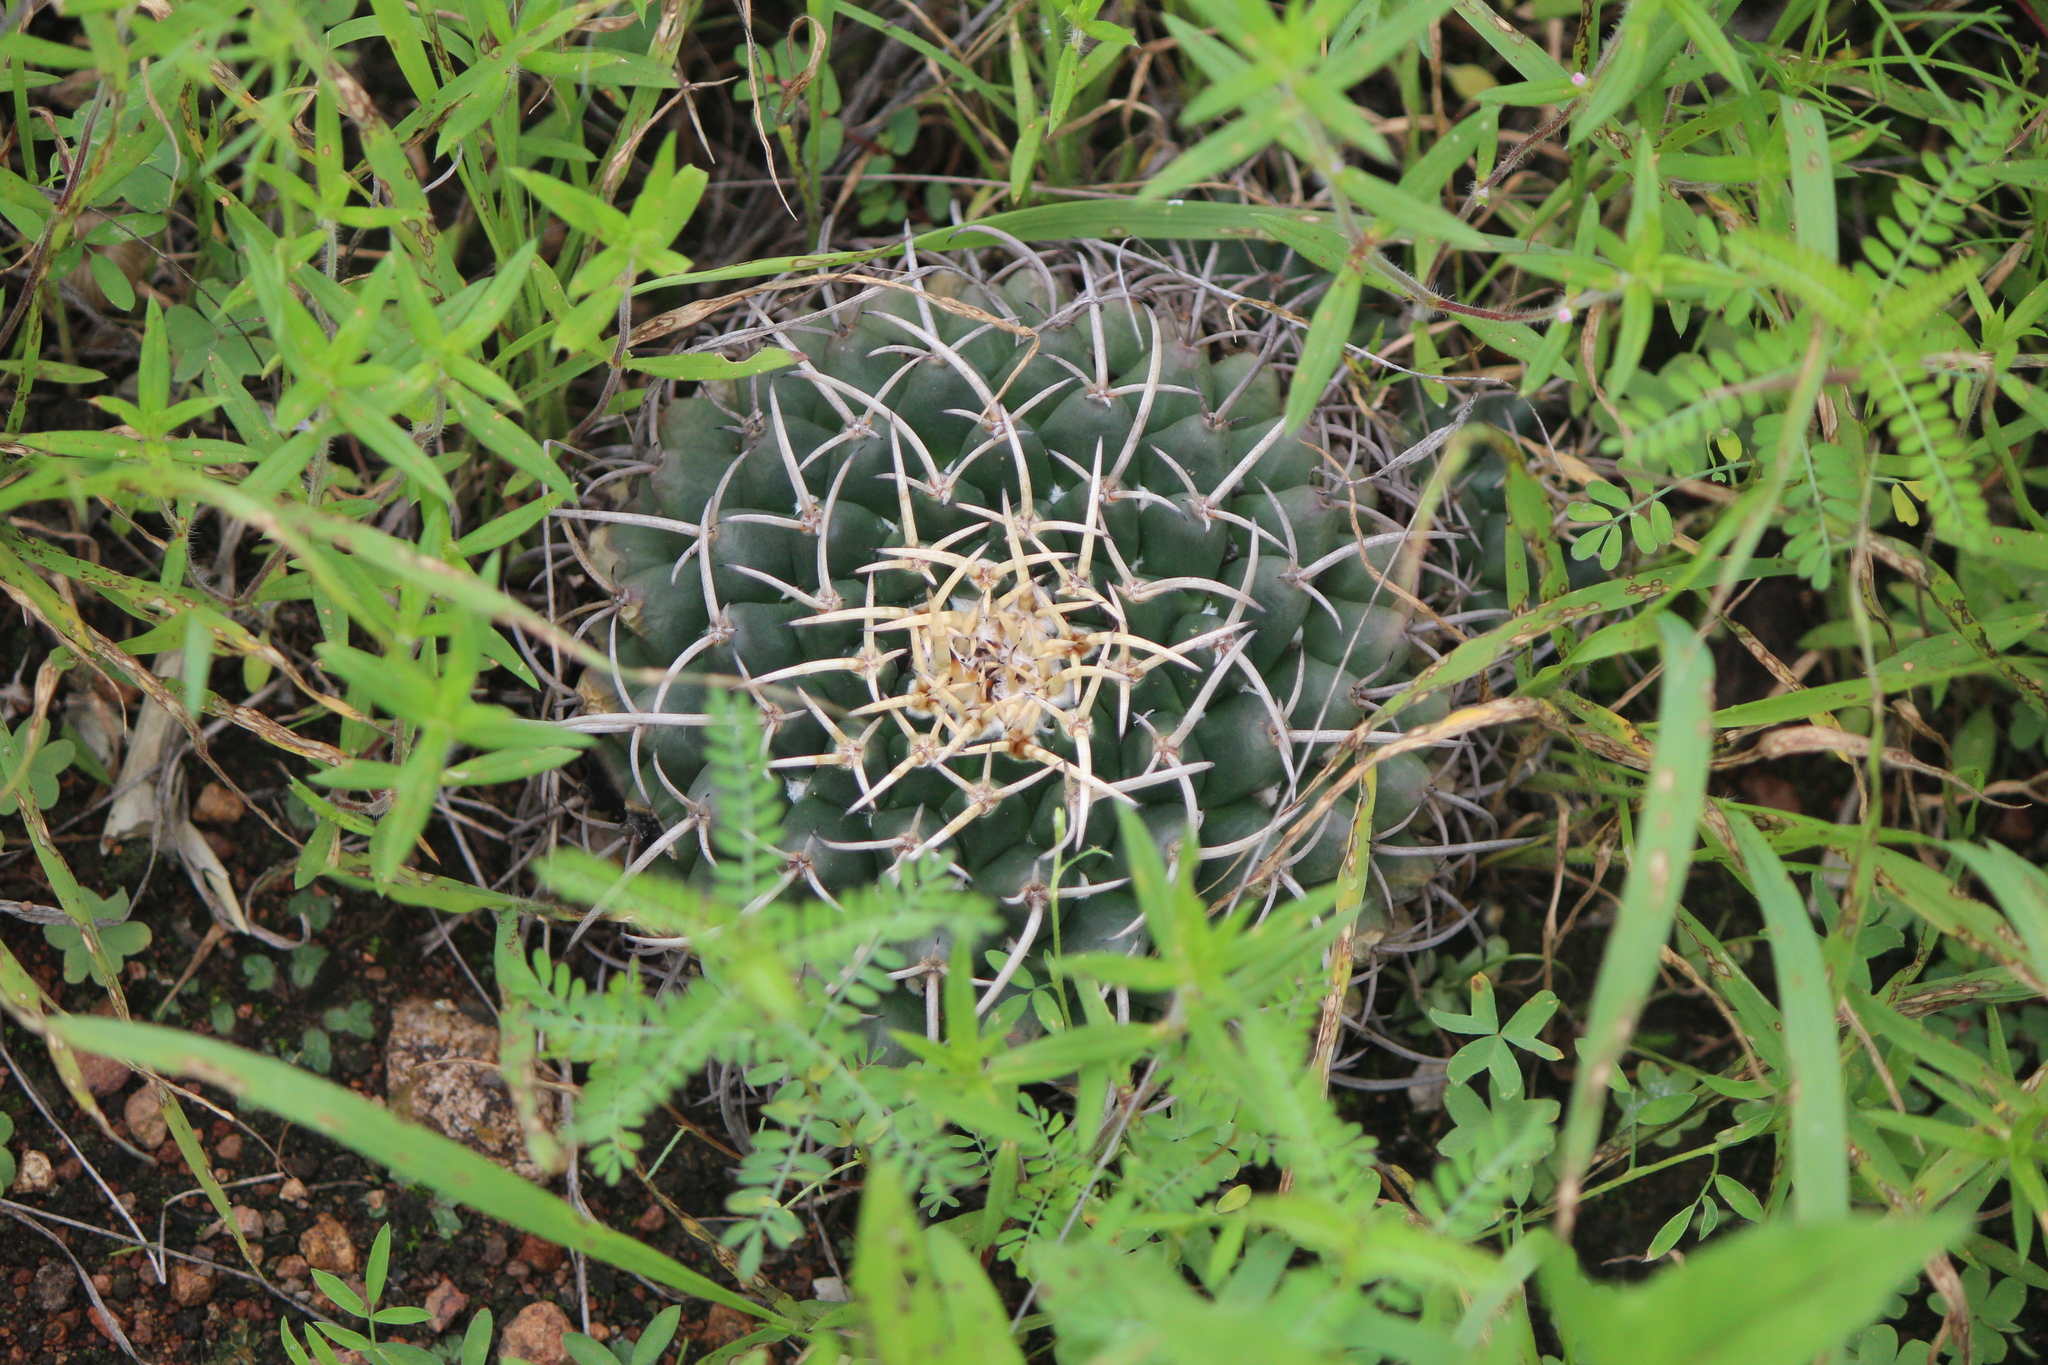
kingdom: Plantae
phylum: Tracheophyta
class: Magnoliopsida
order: Caryophyllales
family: Cactaceae
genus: Mammillaria
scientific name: Mammillaria magnimamma
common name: Mexican pincushion
